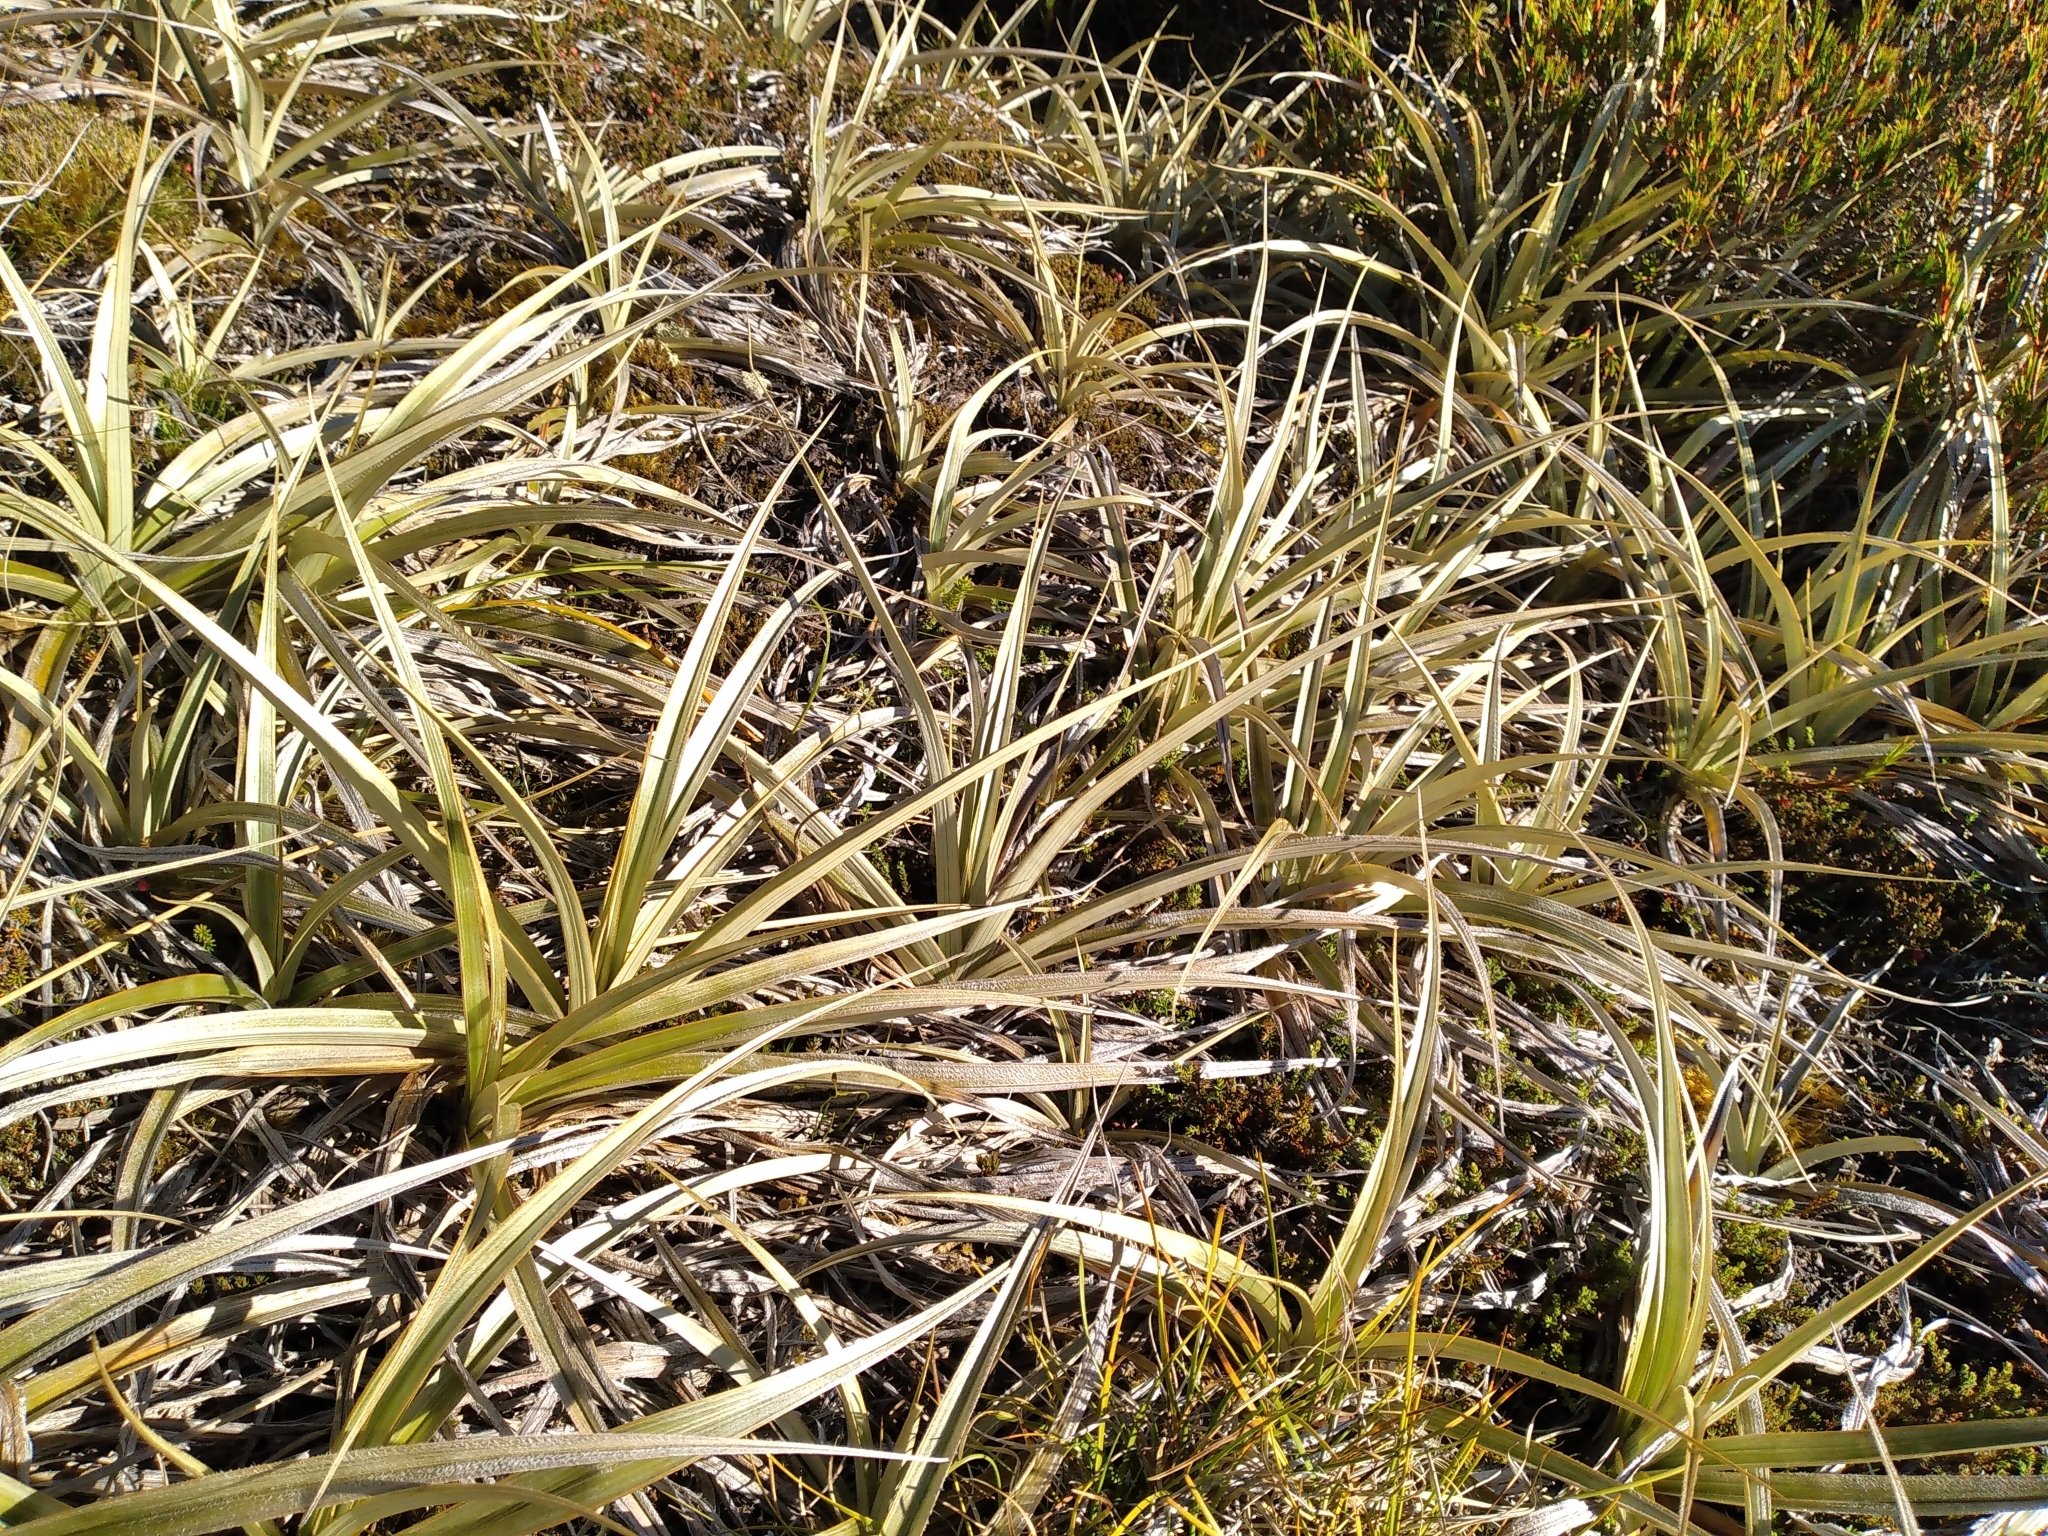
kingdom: Plantae
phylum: Tracheophyta
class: Liliopsida
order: Asparagales
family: Asteliaceae
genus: Astelia
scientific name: Astelia nivicola
